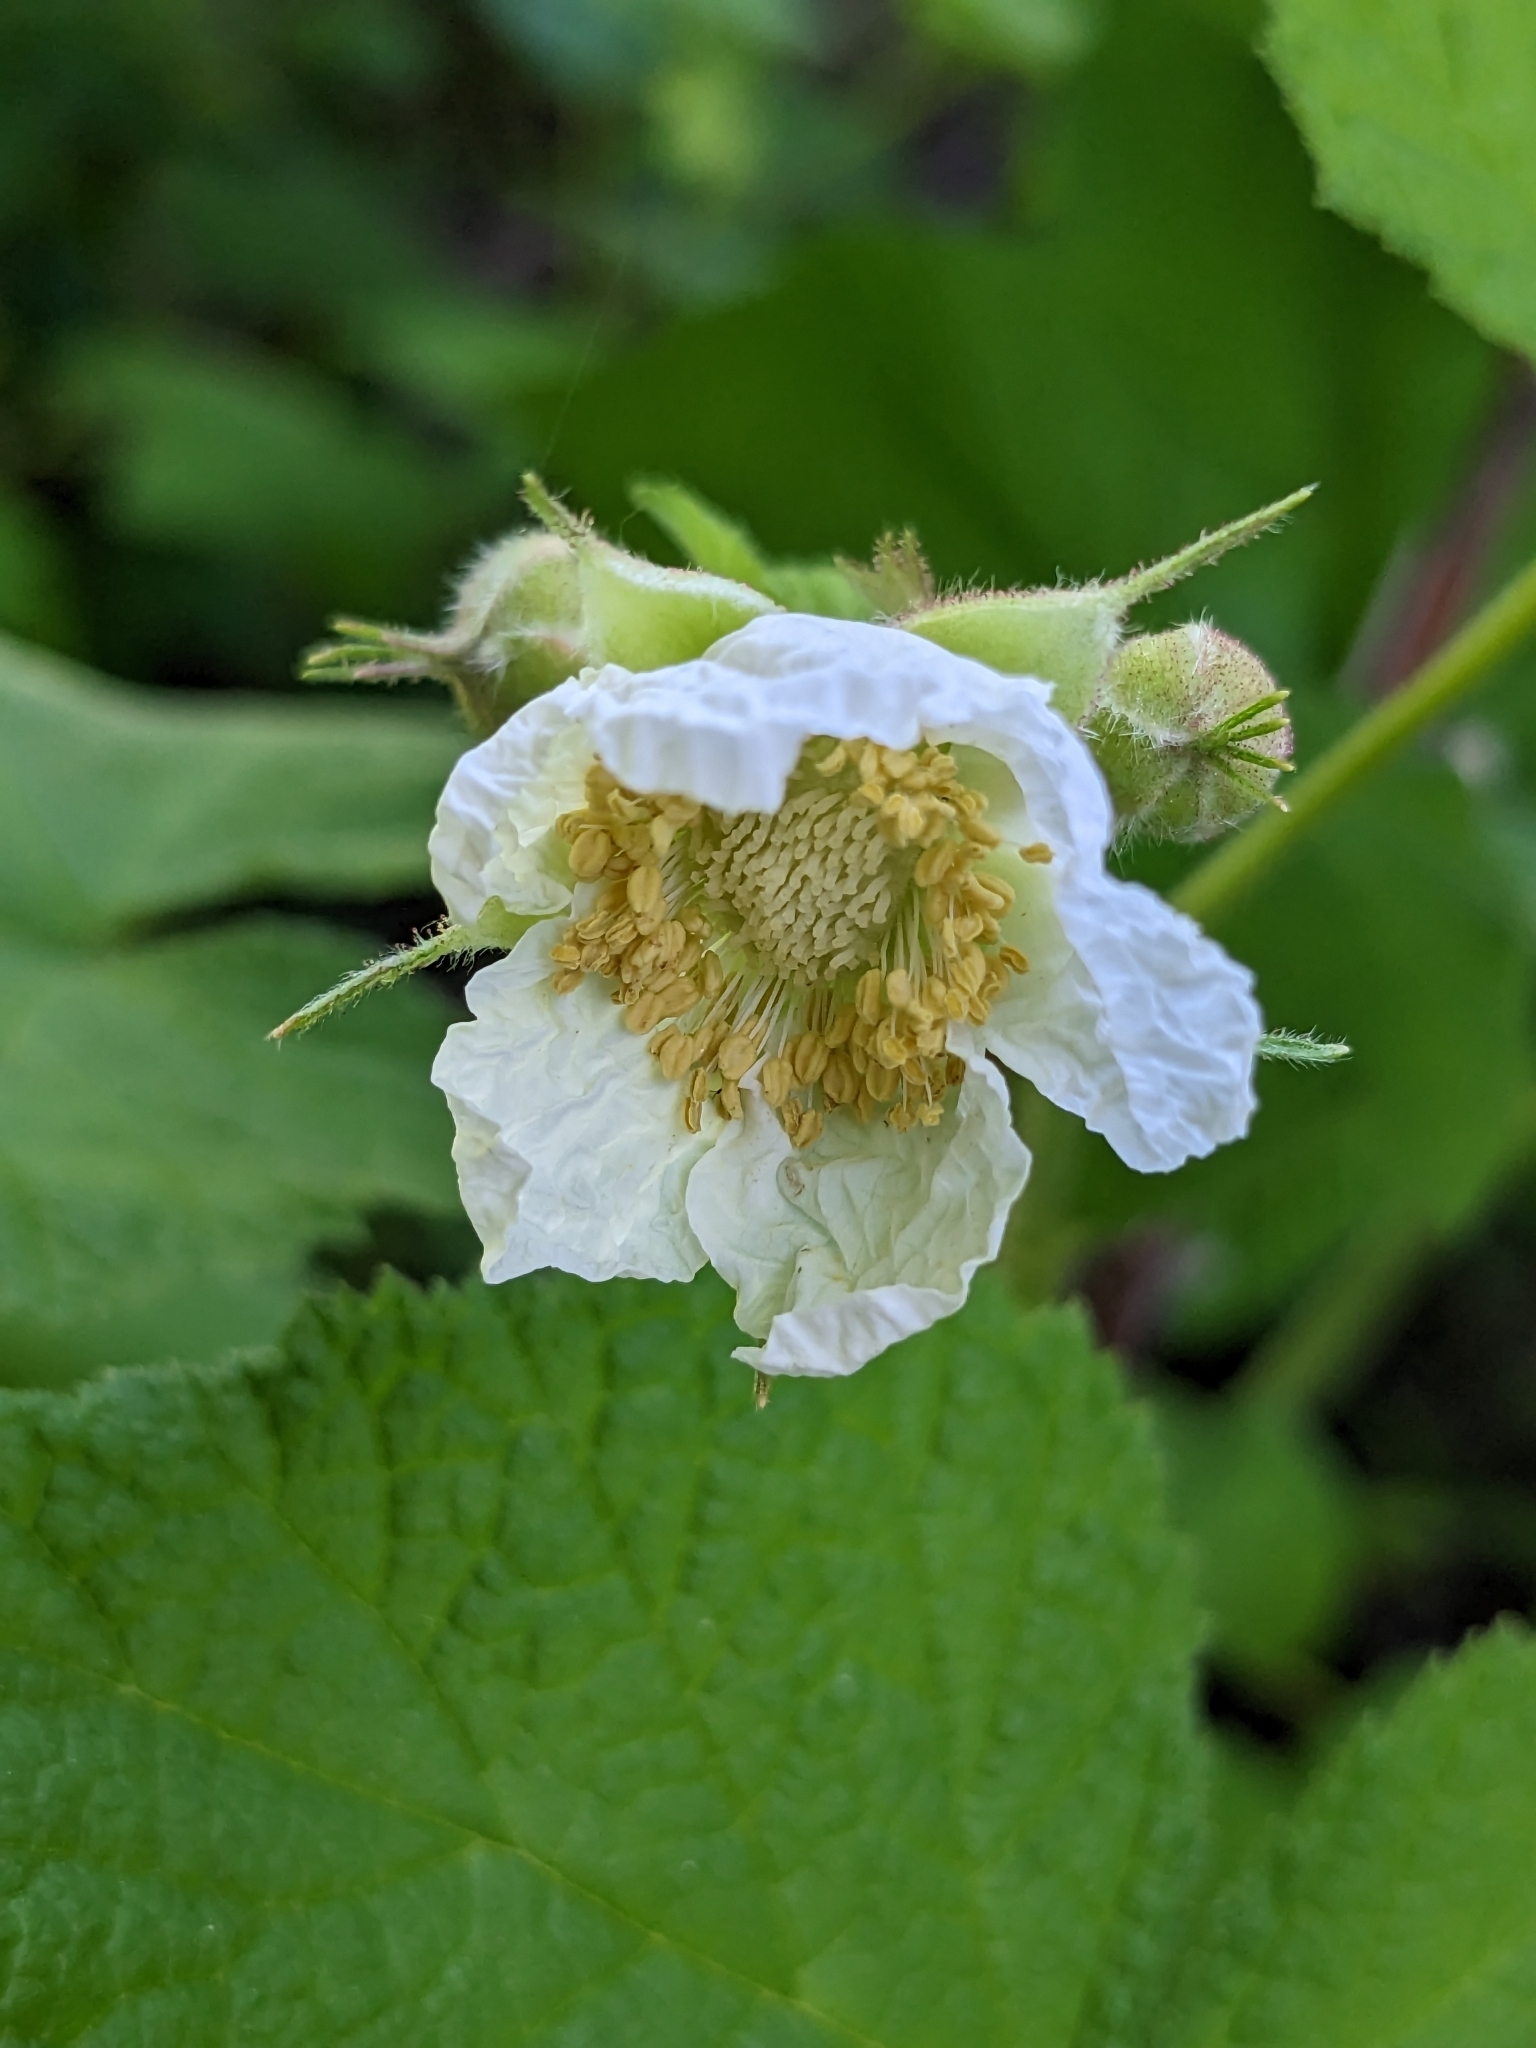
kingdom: Plantae
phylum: Tracheophyta
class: Magnoliopsida
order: Rosales
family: Rosaceae
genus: Rubus
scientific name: Rubus parviflorus
